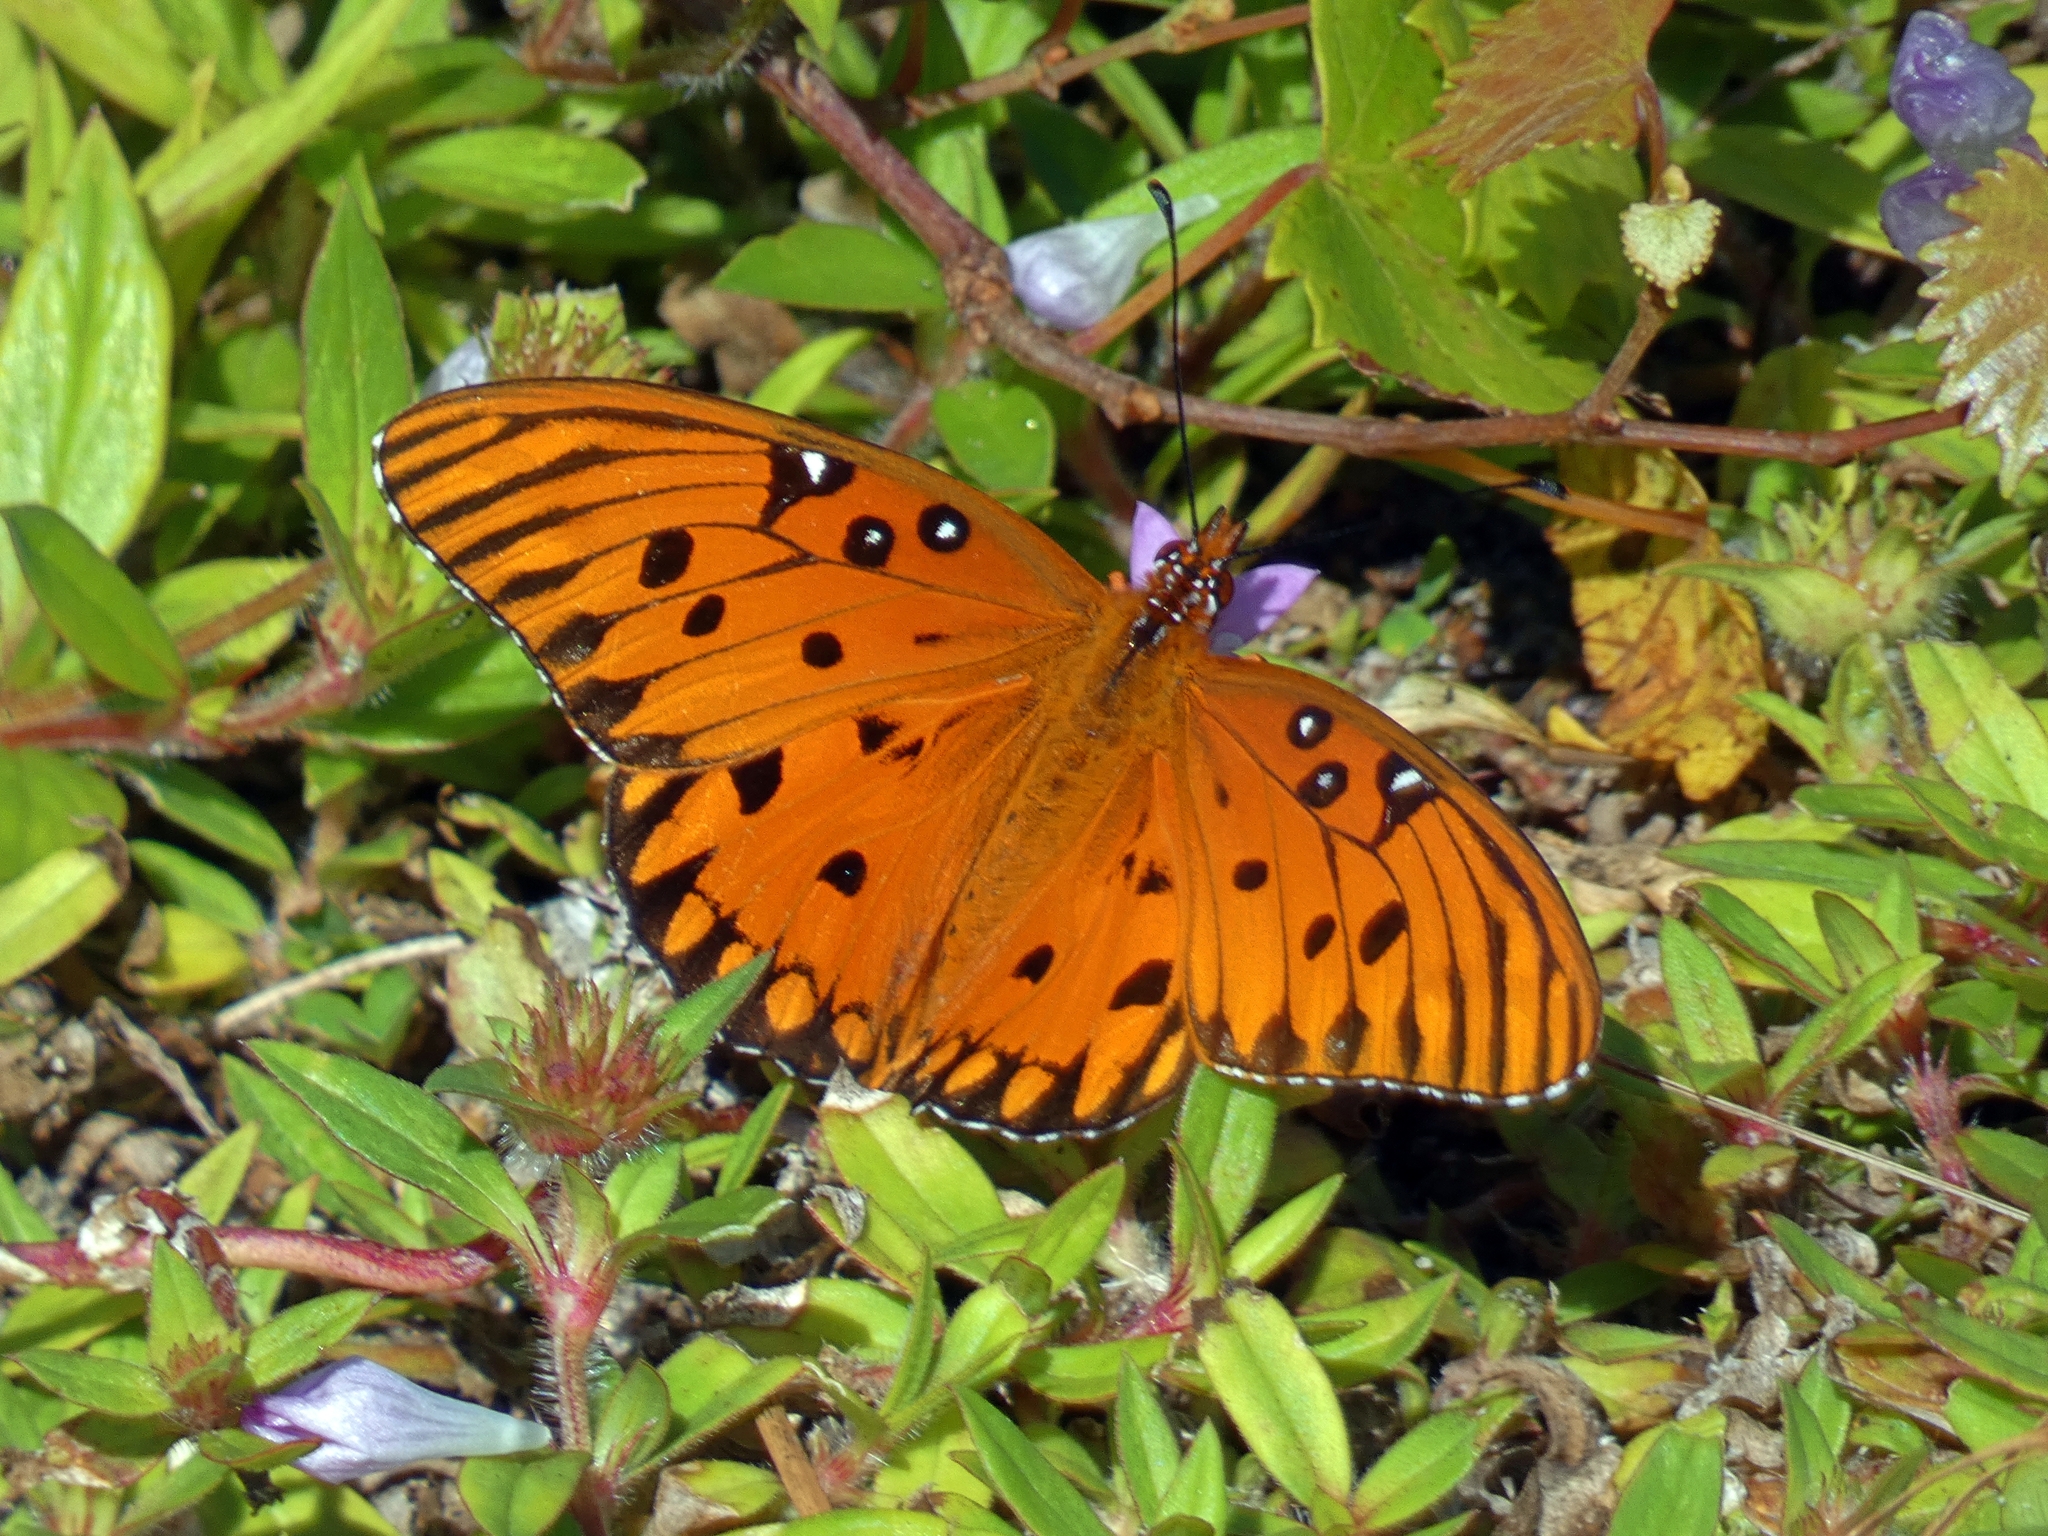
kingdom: Animalia
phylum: Arthropoda
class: Insecta
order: Lepidoptera
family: Nymphalidae
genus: Dione
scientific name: Dione vanillae
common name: Gulf fritillary
